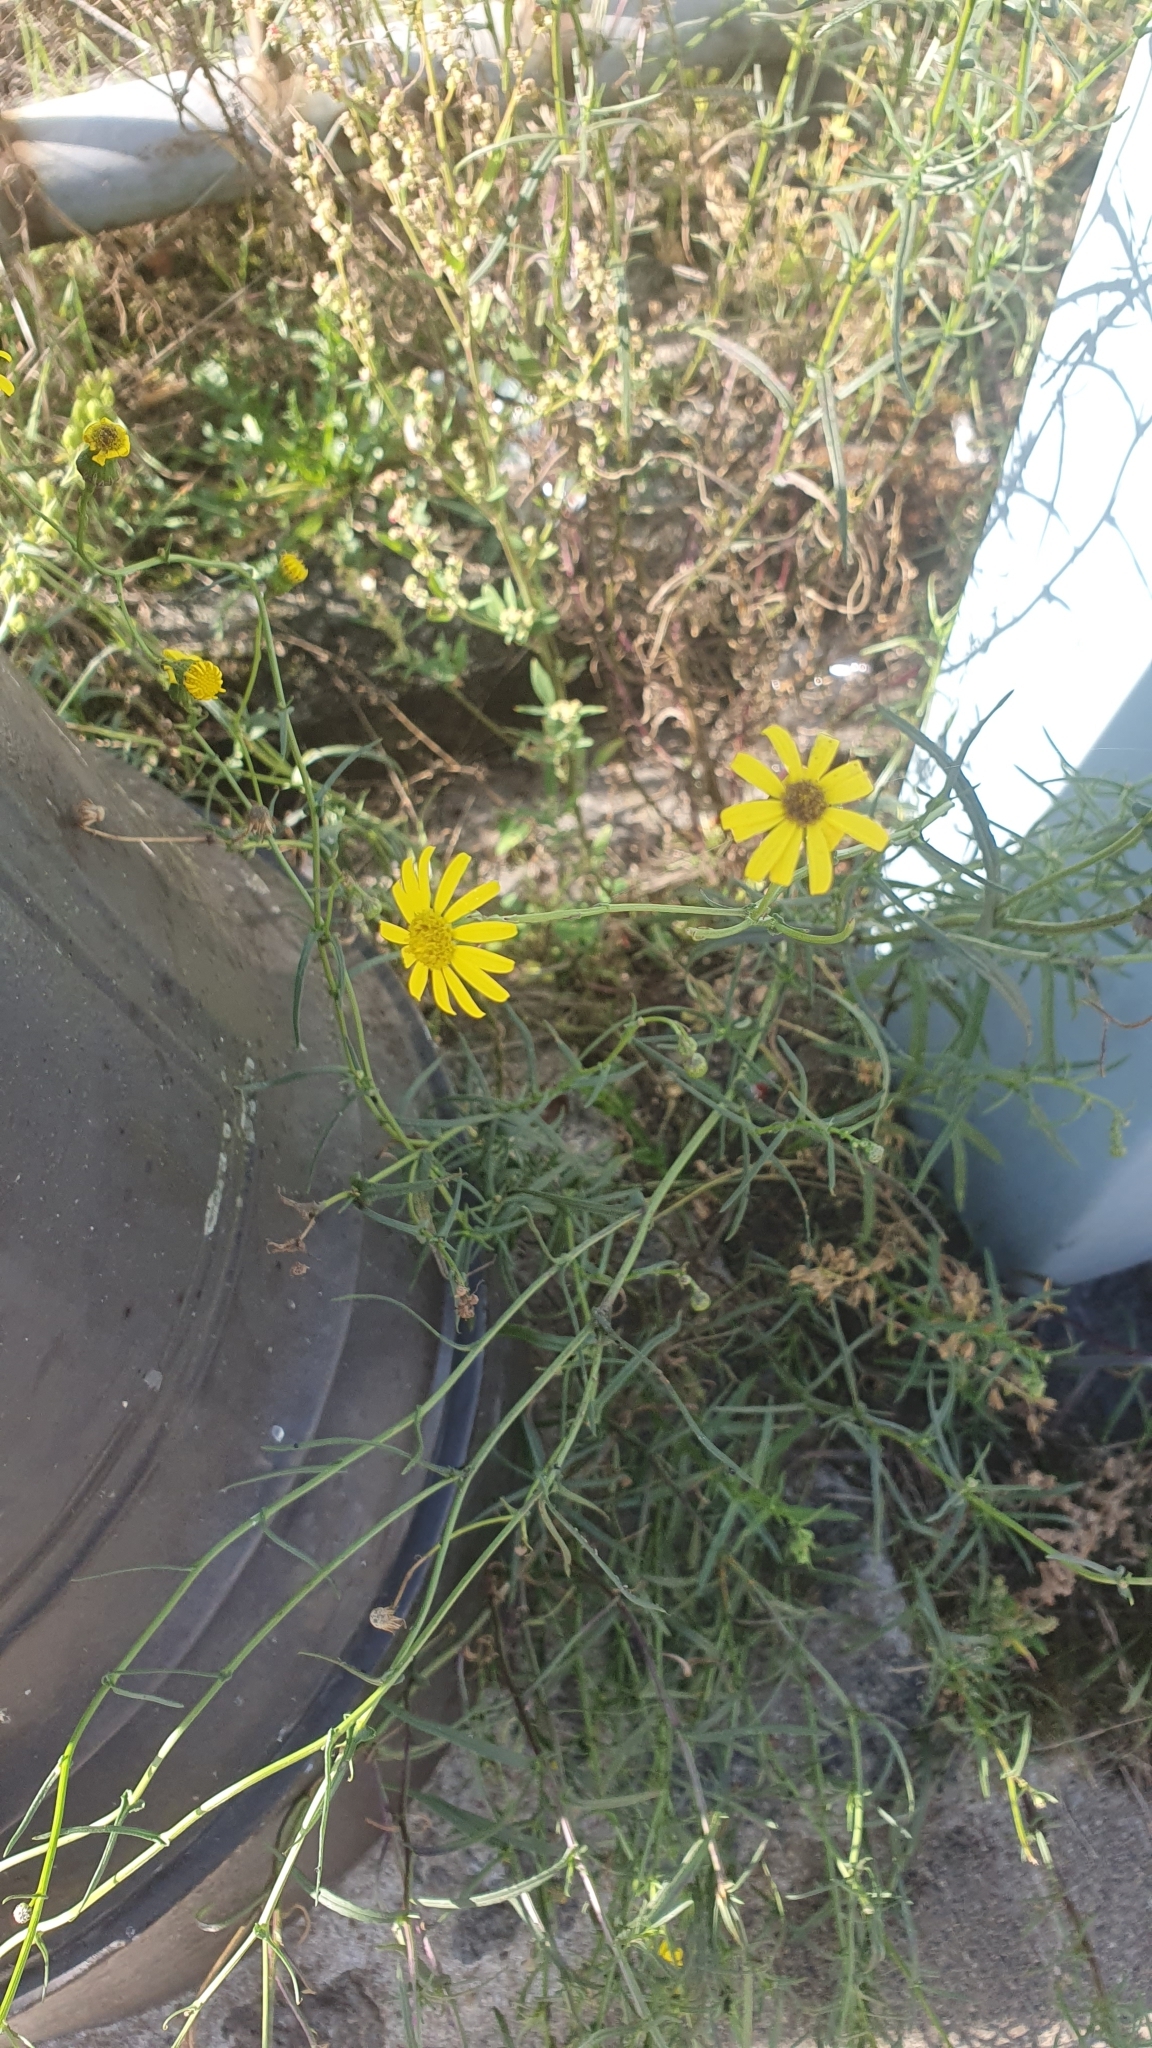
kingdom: Plantae
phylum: Tracheophyta
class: Magnoliopsida
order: Asterales
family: Asteraceae
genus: Senecio
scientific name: Senecio inaequidens
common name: Narrow-leaved ragwort
